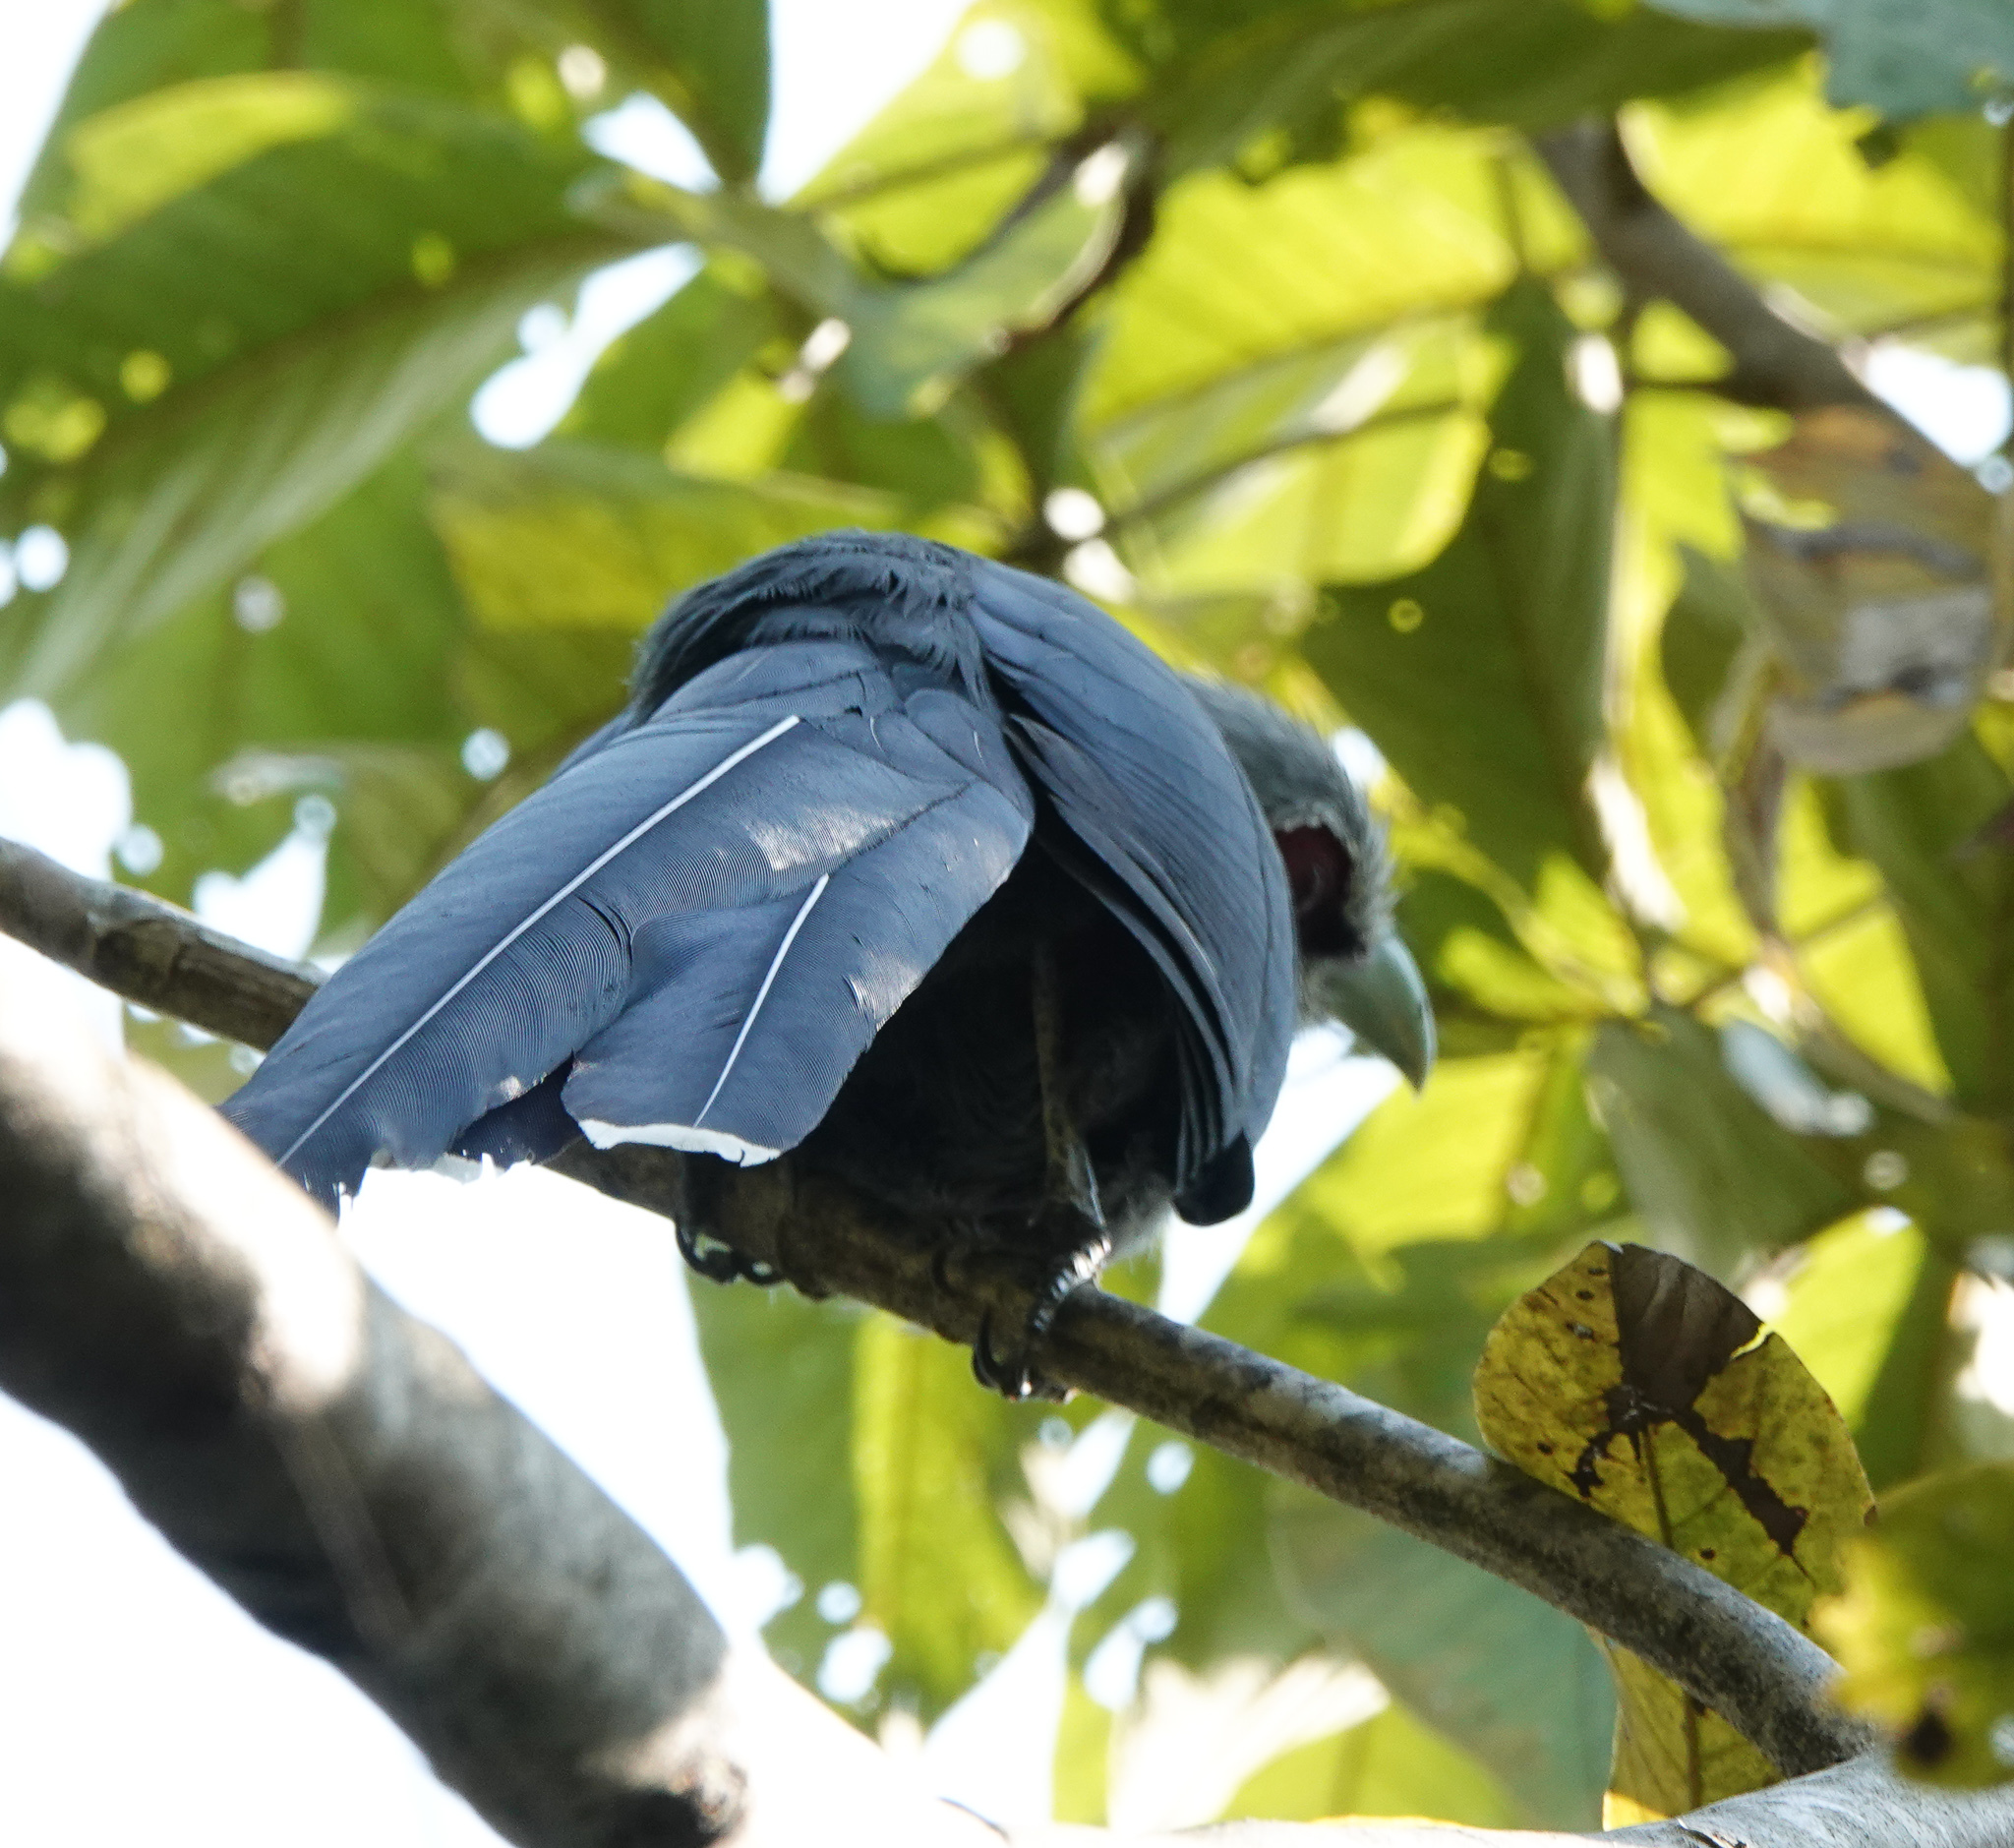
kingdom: Animalia
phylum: Chordata
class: Aves
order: Cuculiformes
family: Cuculidae
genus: Rhopodytes
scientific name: Rhopodytes tristis
